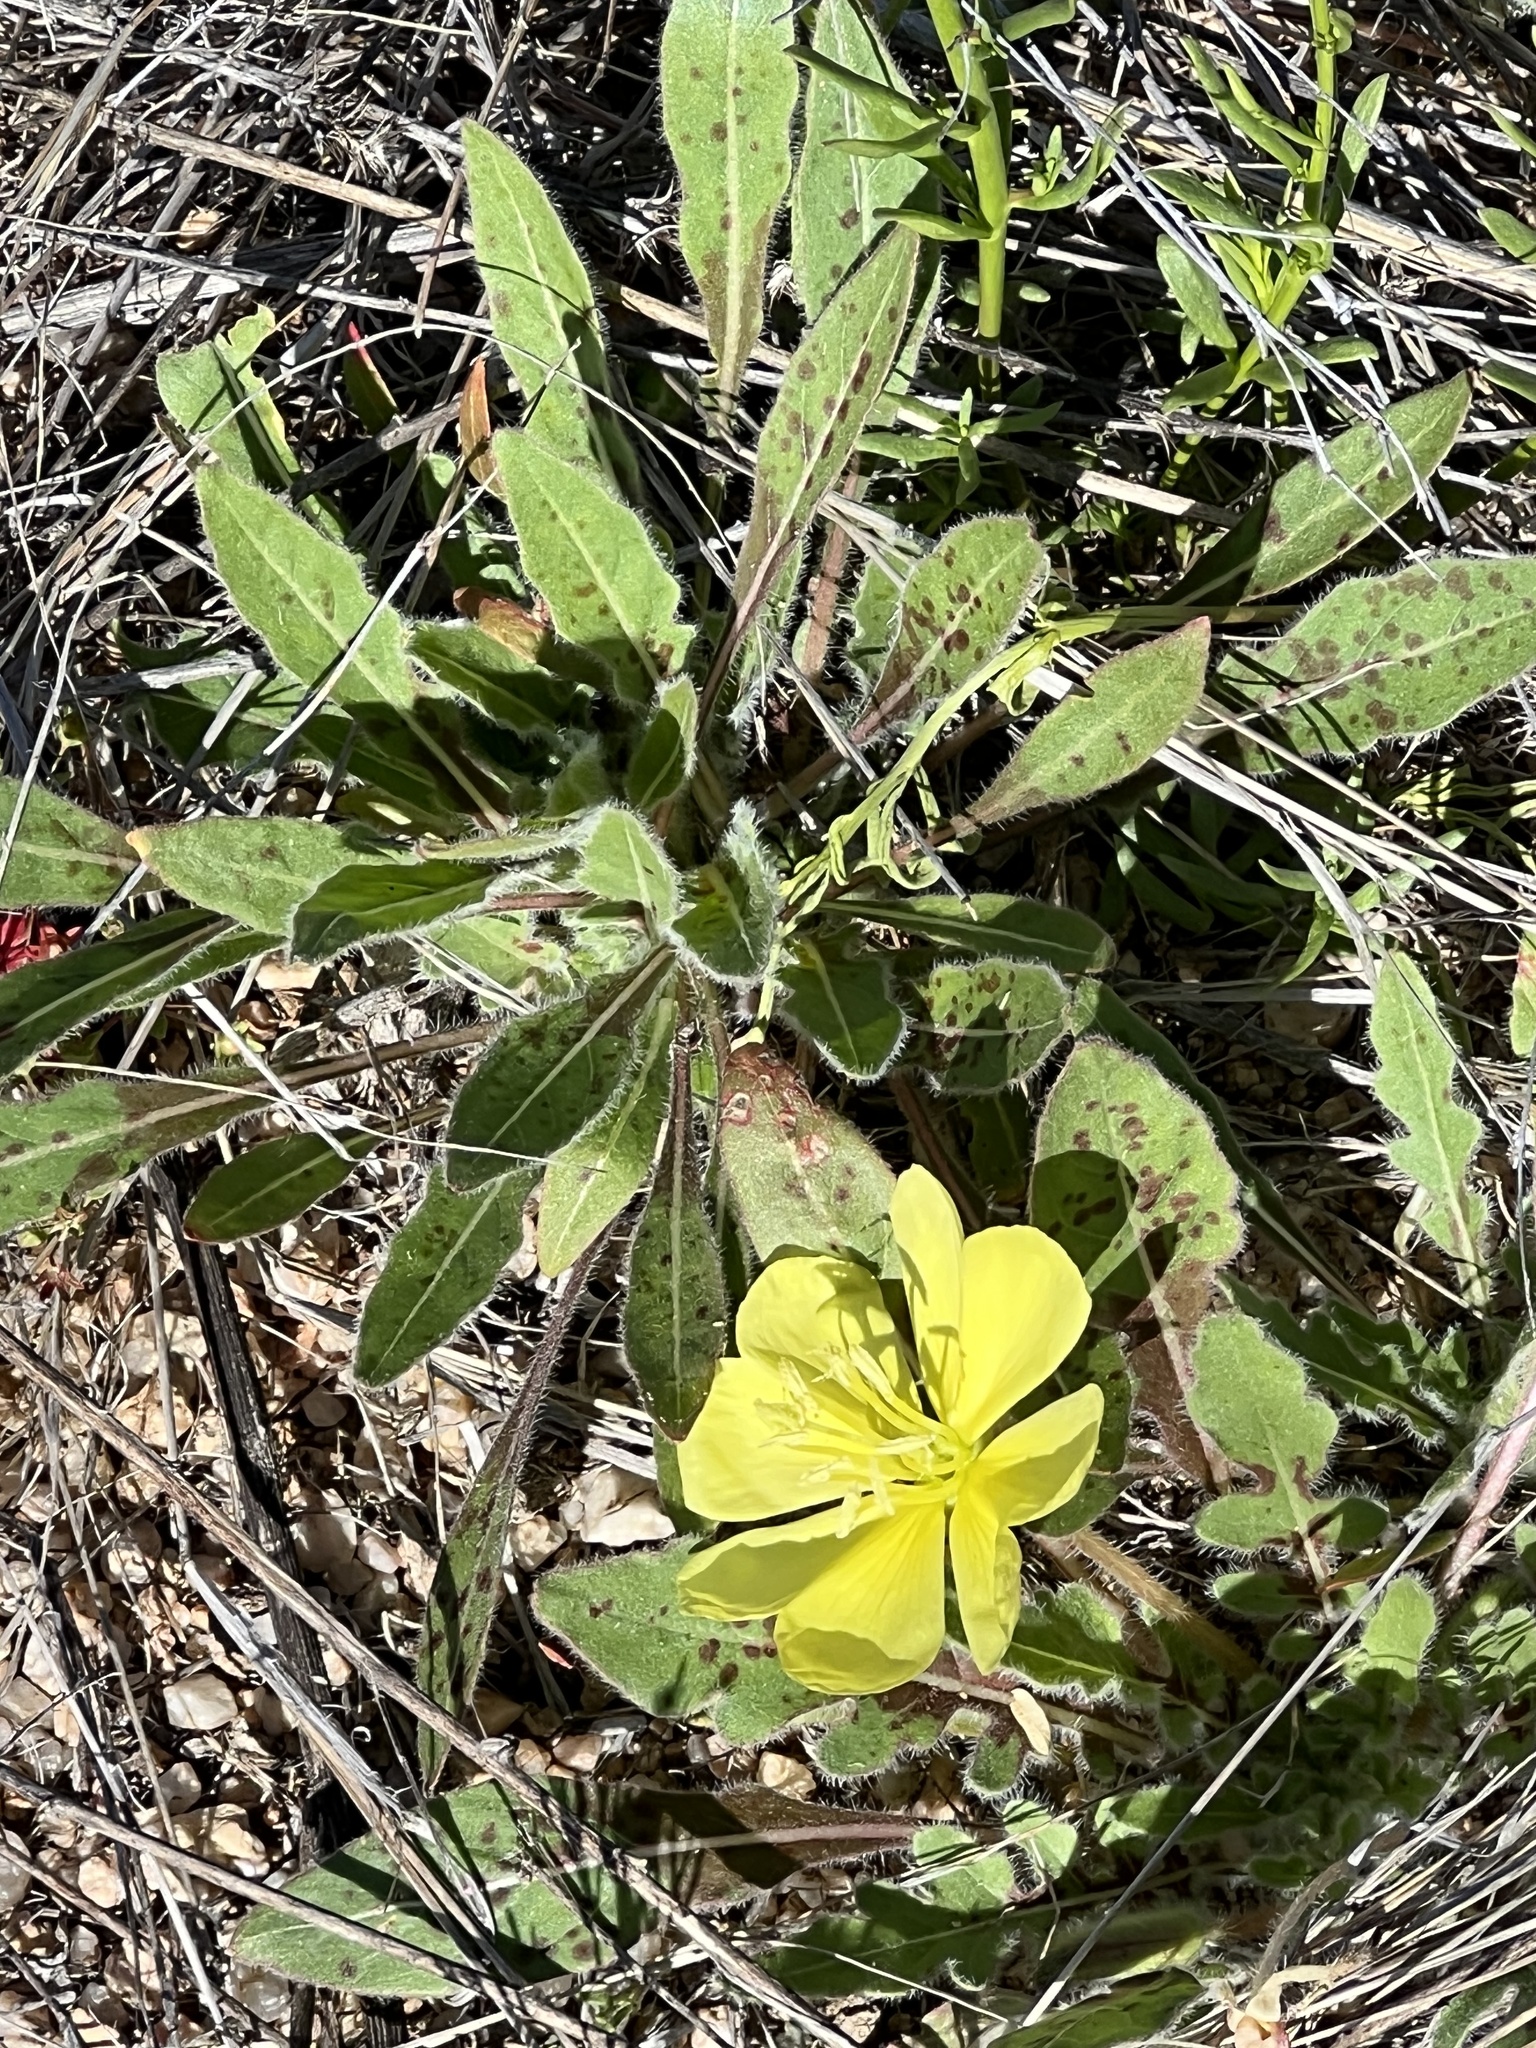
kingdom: Plantae
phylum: Tracheophyta
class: Magnoliopsida
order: Myrtales
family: Onagraceae
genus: Oenothera
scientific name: Oenothera primiveris
